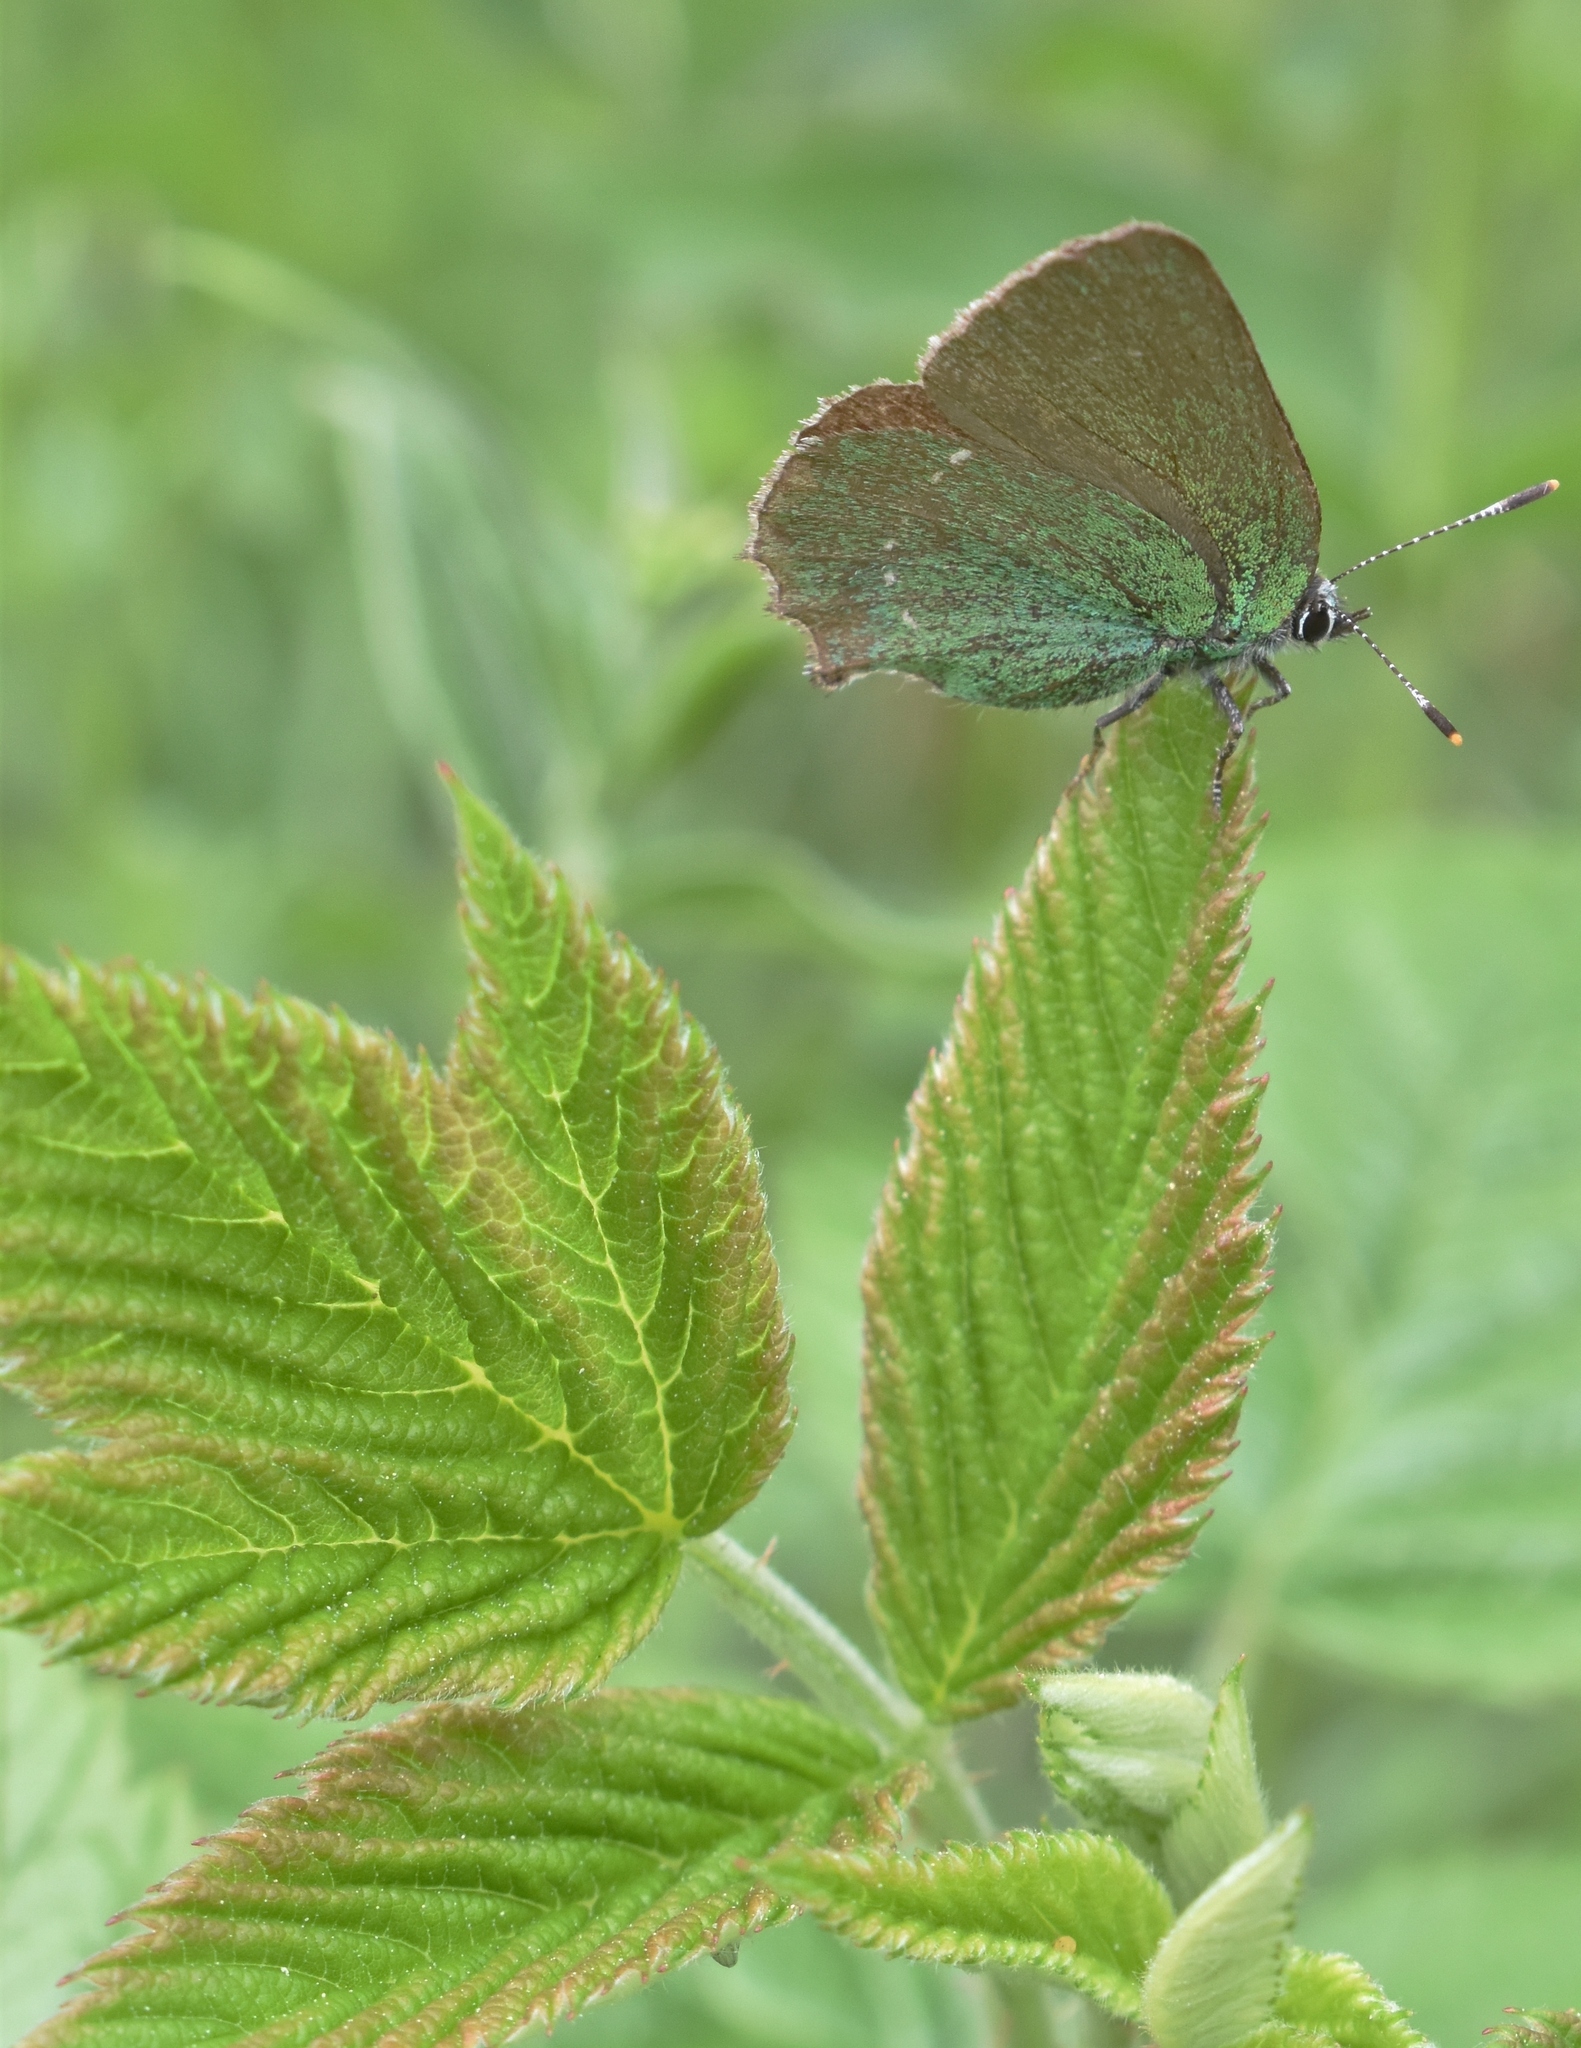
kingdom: Animalia
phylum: Arthropoda
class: Insecta
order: Lepidoptera
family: Lycaenidae
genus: Callophrys
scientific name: Callophrys rubi
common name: Green hairstreak
